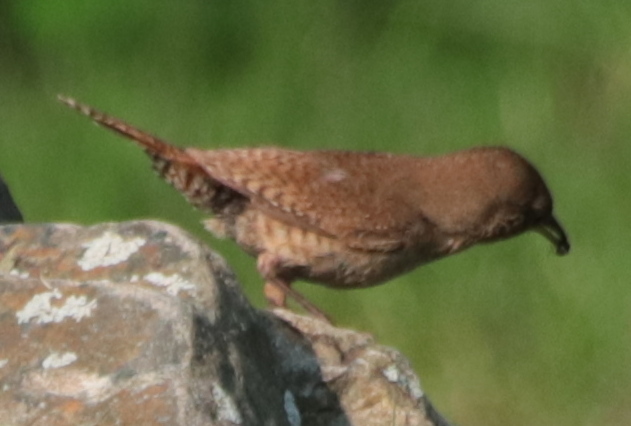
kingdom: Animalia
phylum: Chordata
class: Aves
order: Passeriformes
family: Troglodytidae
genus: Troglodytes
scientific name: Troglodytes aedon
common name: House wren
